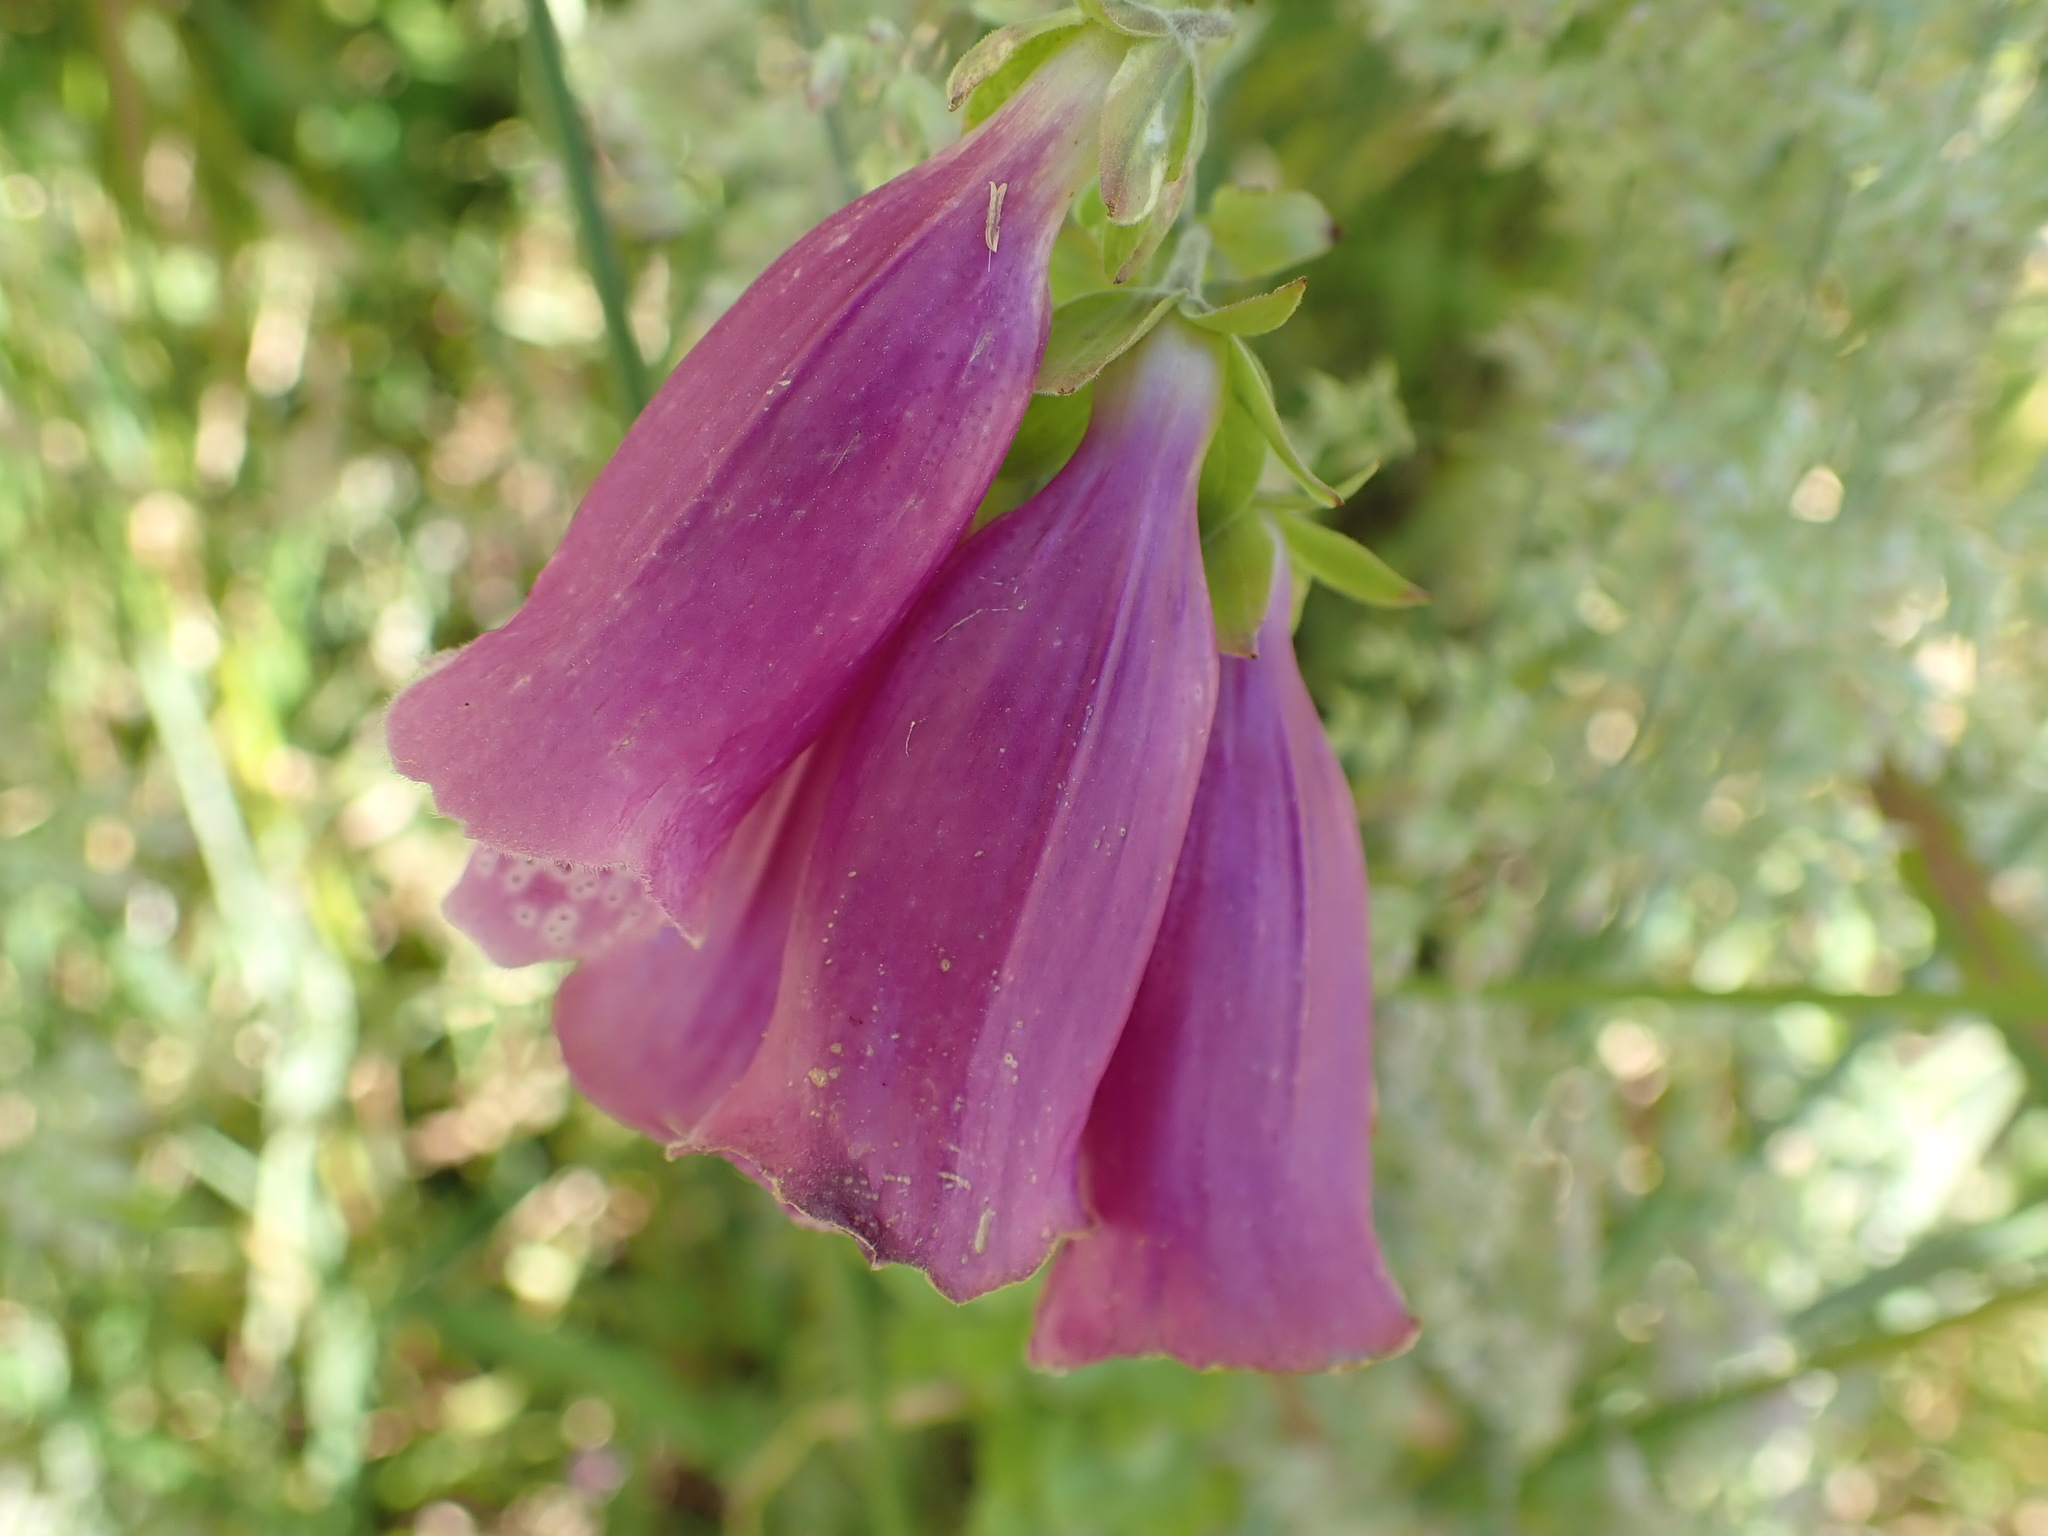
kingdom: Plantae
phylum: Tracheophyta
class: Magnoliopsida
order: Lamiales
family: Plantaginaceae
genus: Digitalis
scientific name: Digitalis purpurea
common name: Foxglove
